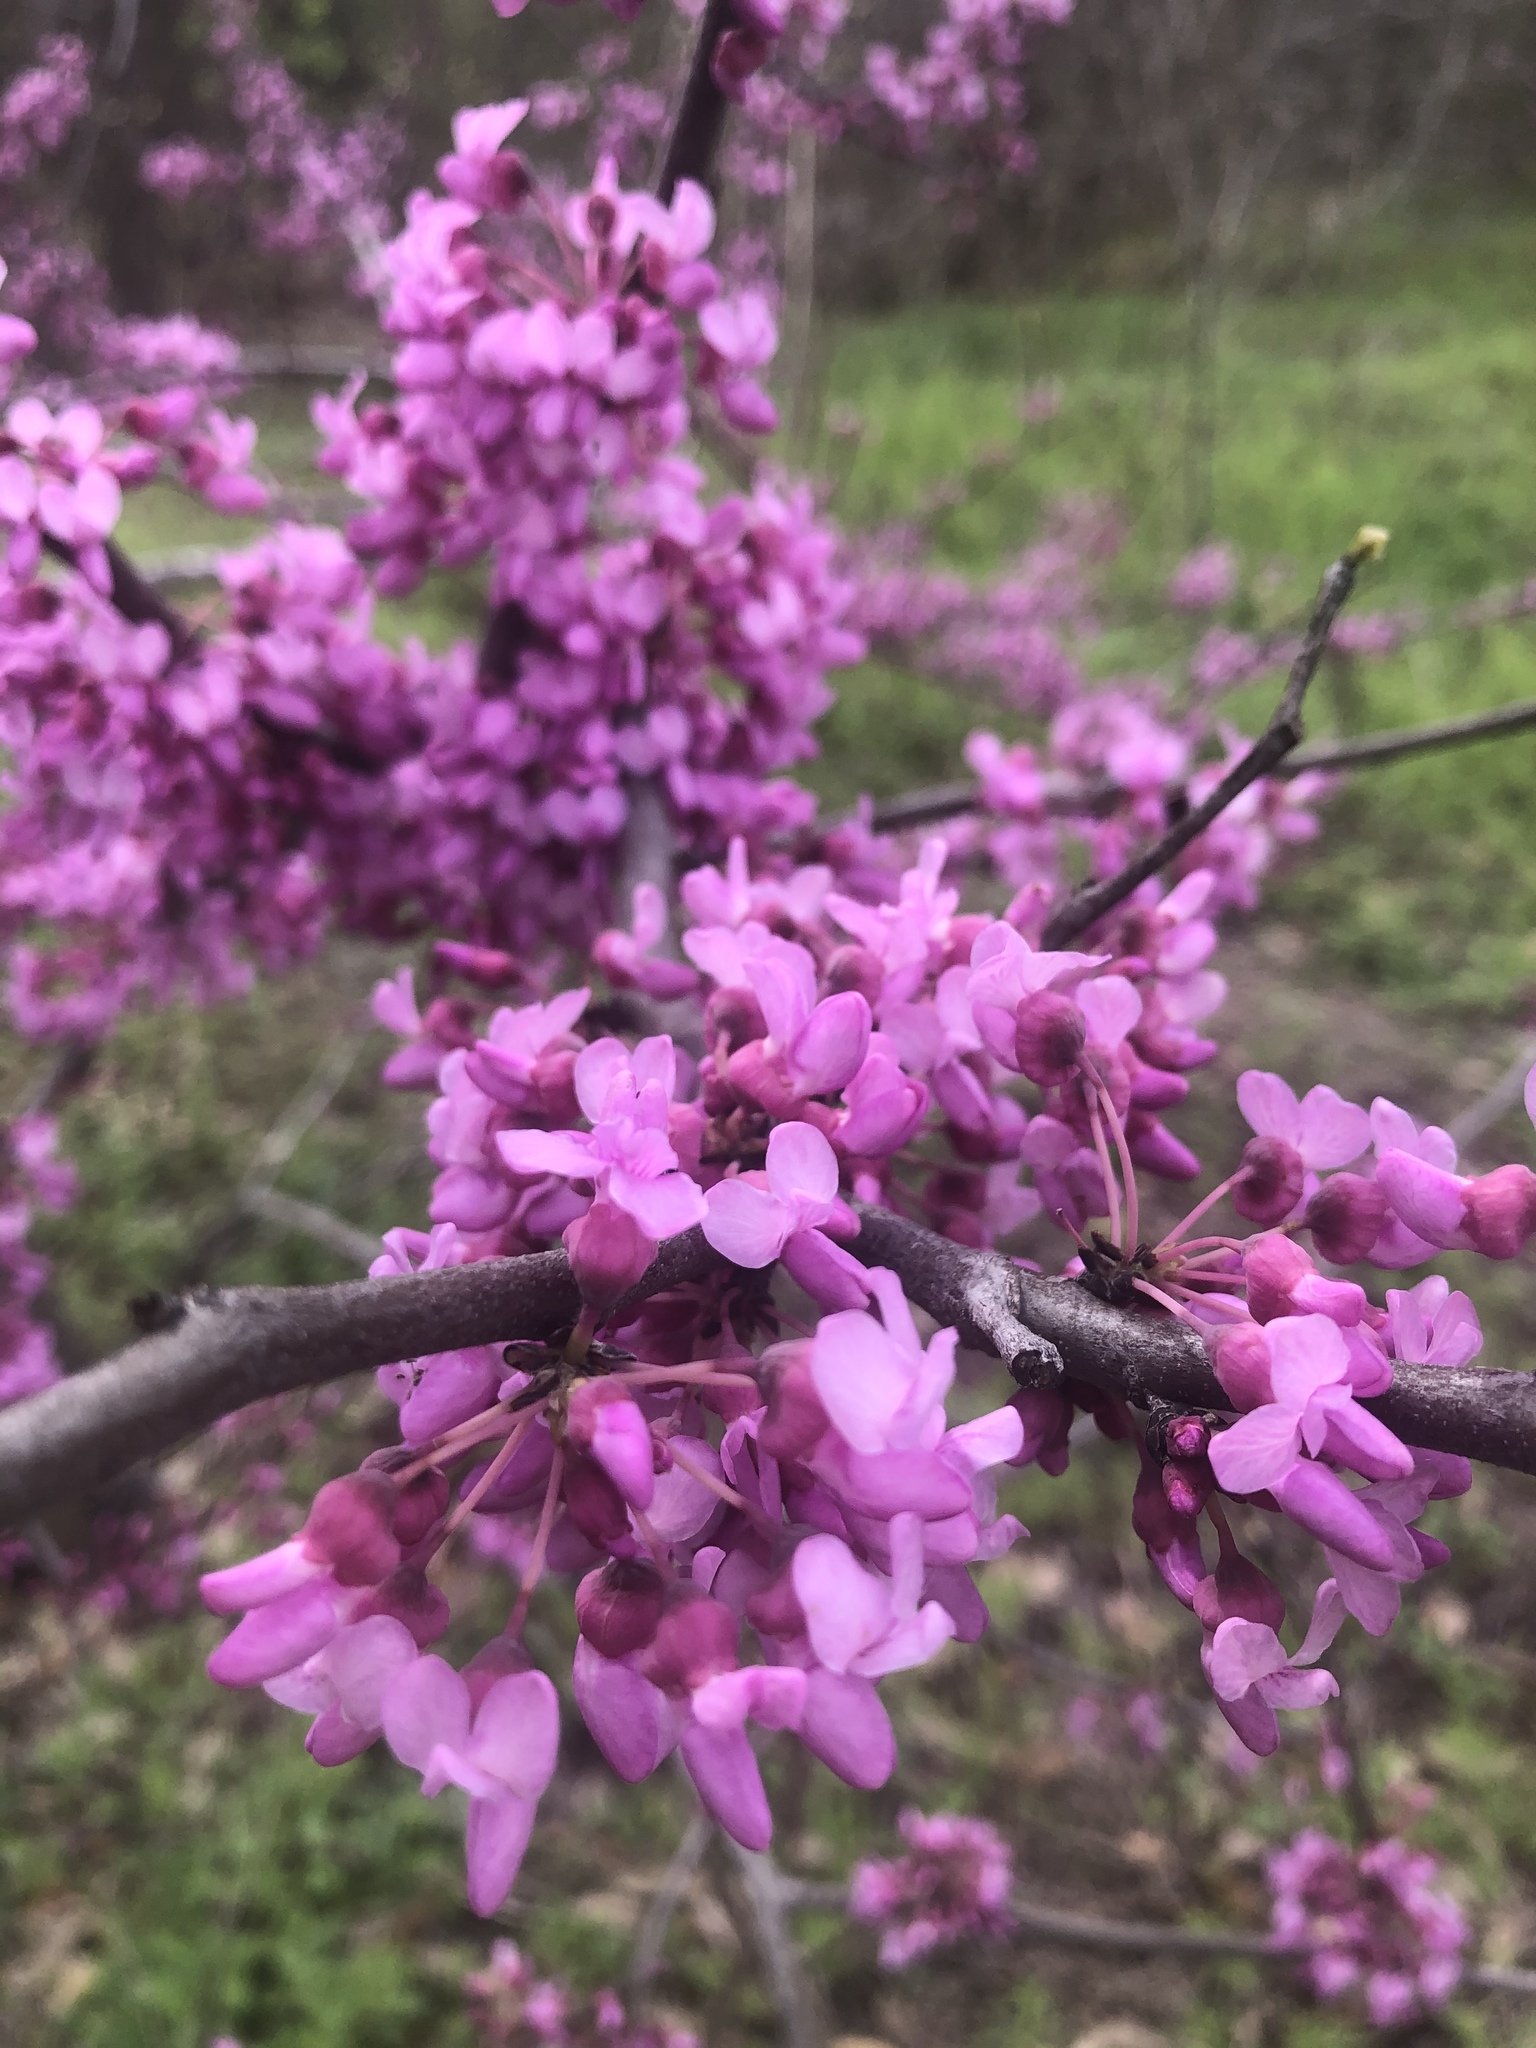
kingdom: Plantae
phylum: Tracheophyta
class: Magnoliopsida
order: Fabales
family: Fabaceae
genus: Cercis
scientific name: Cercis canadensis
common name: Eastern redbud
